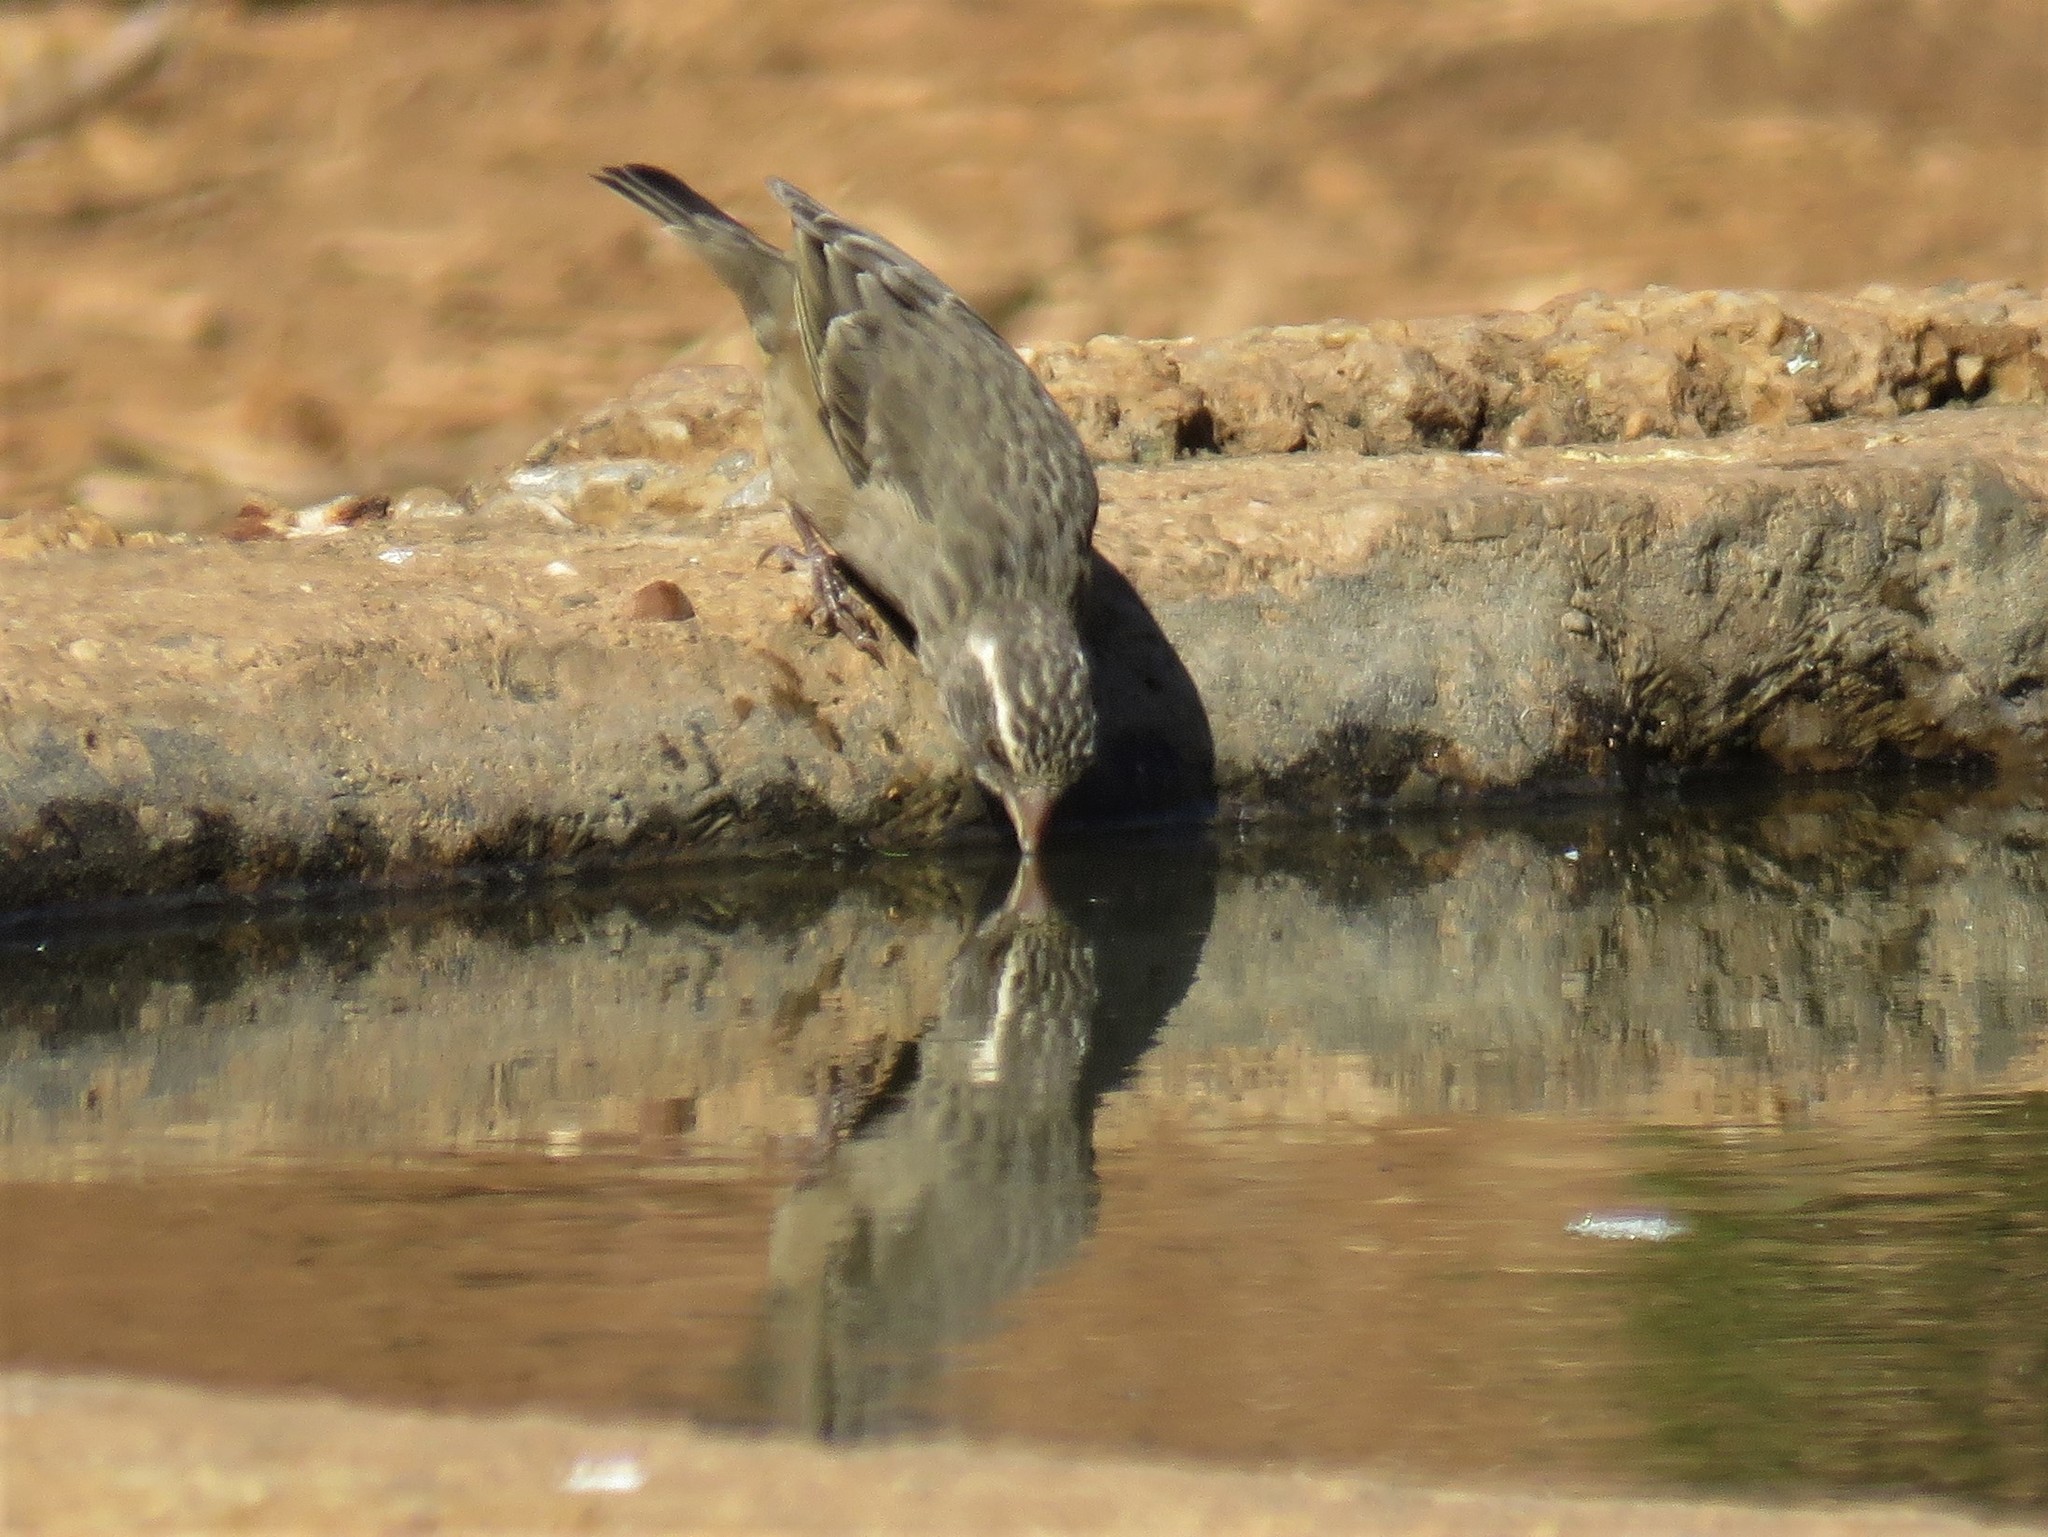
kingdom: Animalia
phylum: Chordata
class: Aves
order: Passeriformes
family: Fringillidae
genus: Crithagra
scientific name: Crithagra gularis
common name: Streaky-headed seedeater
